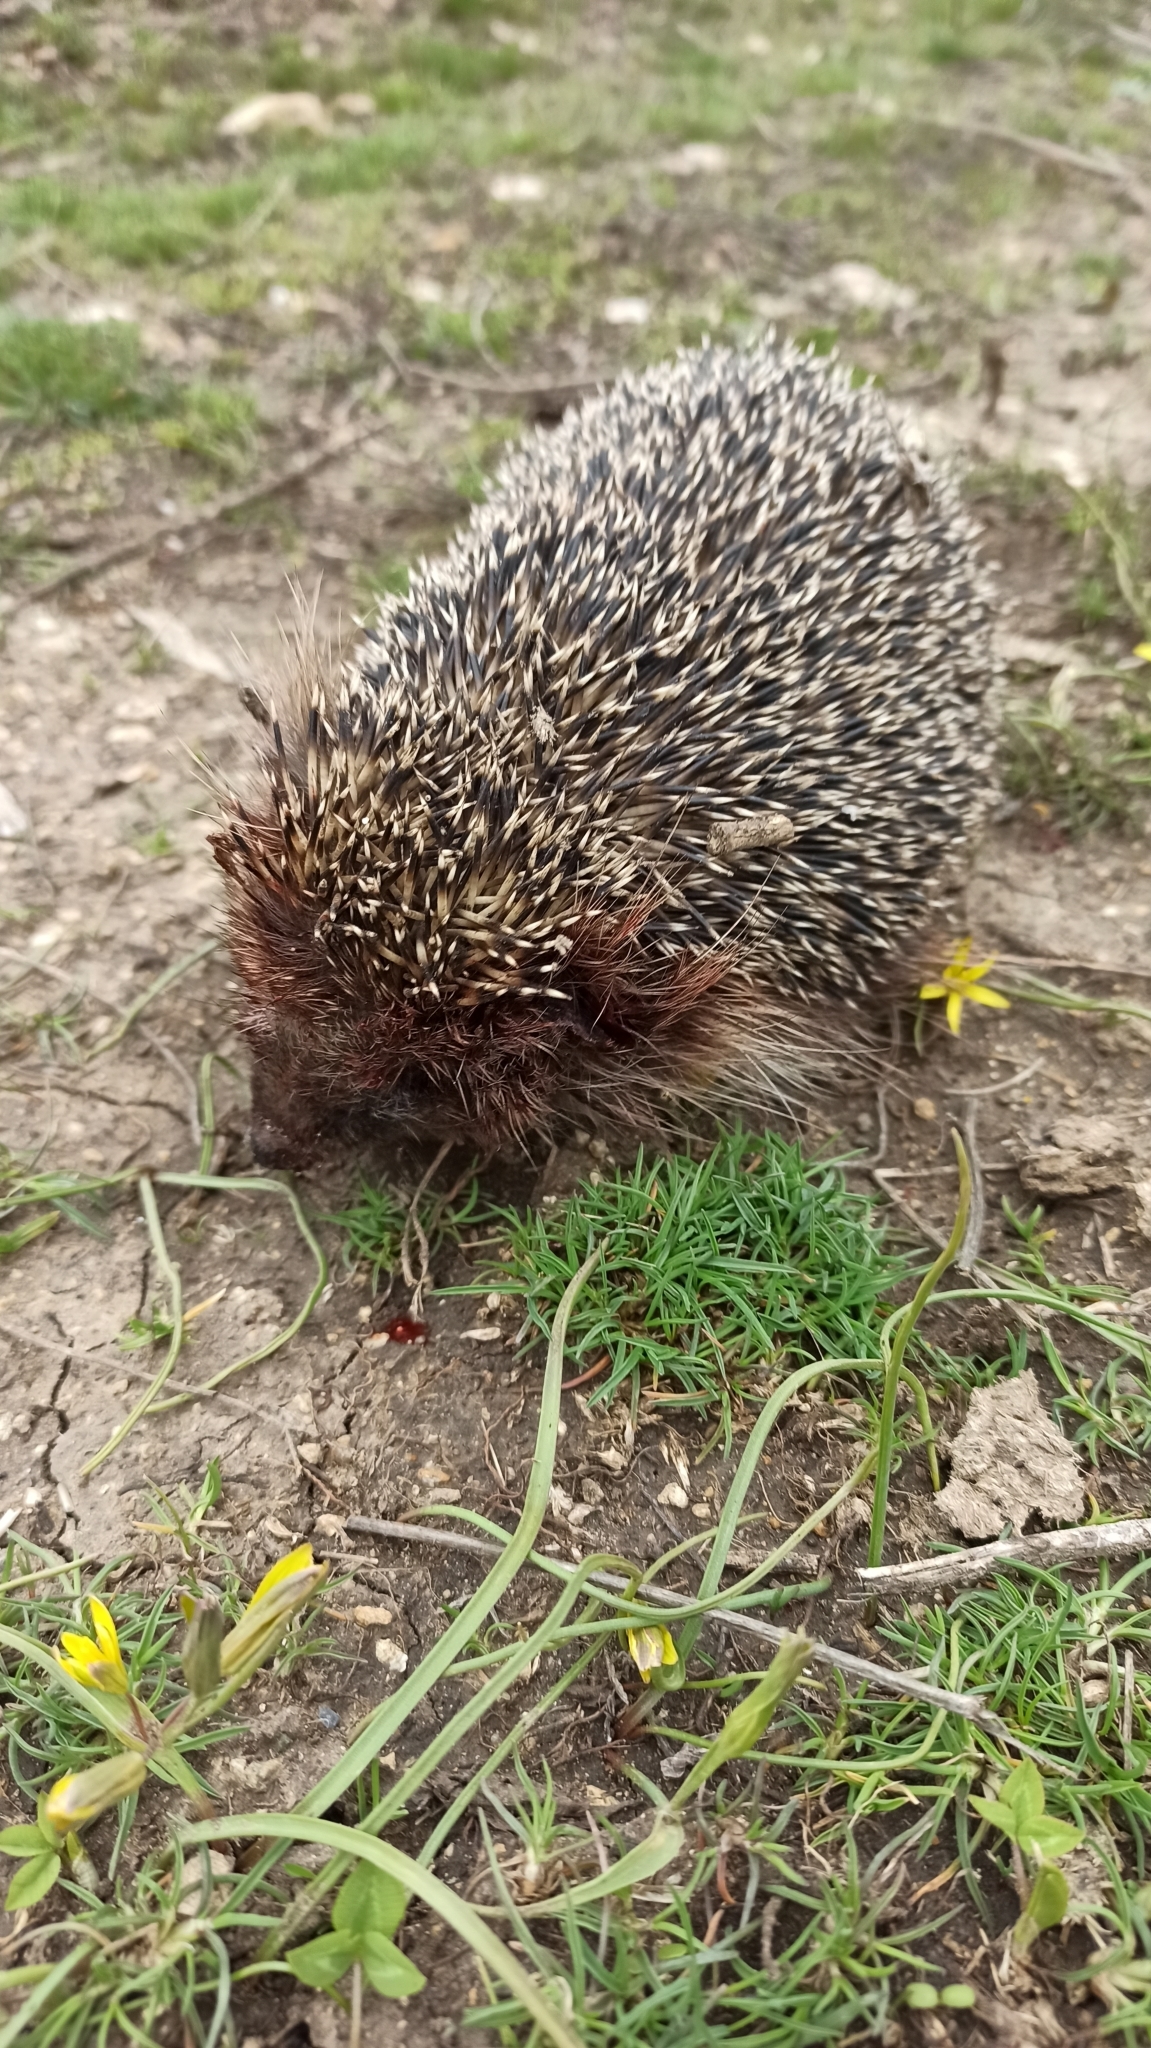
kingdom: Animalia
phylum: Chordata
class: Mammalia
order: Erinaceomorpha
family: Erinaceidae
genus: Erinaceus
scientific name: Erinaceus roumanicus
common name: Northern white-breasted hedgehog
